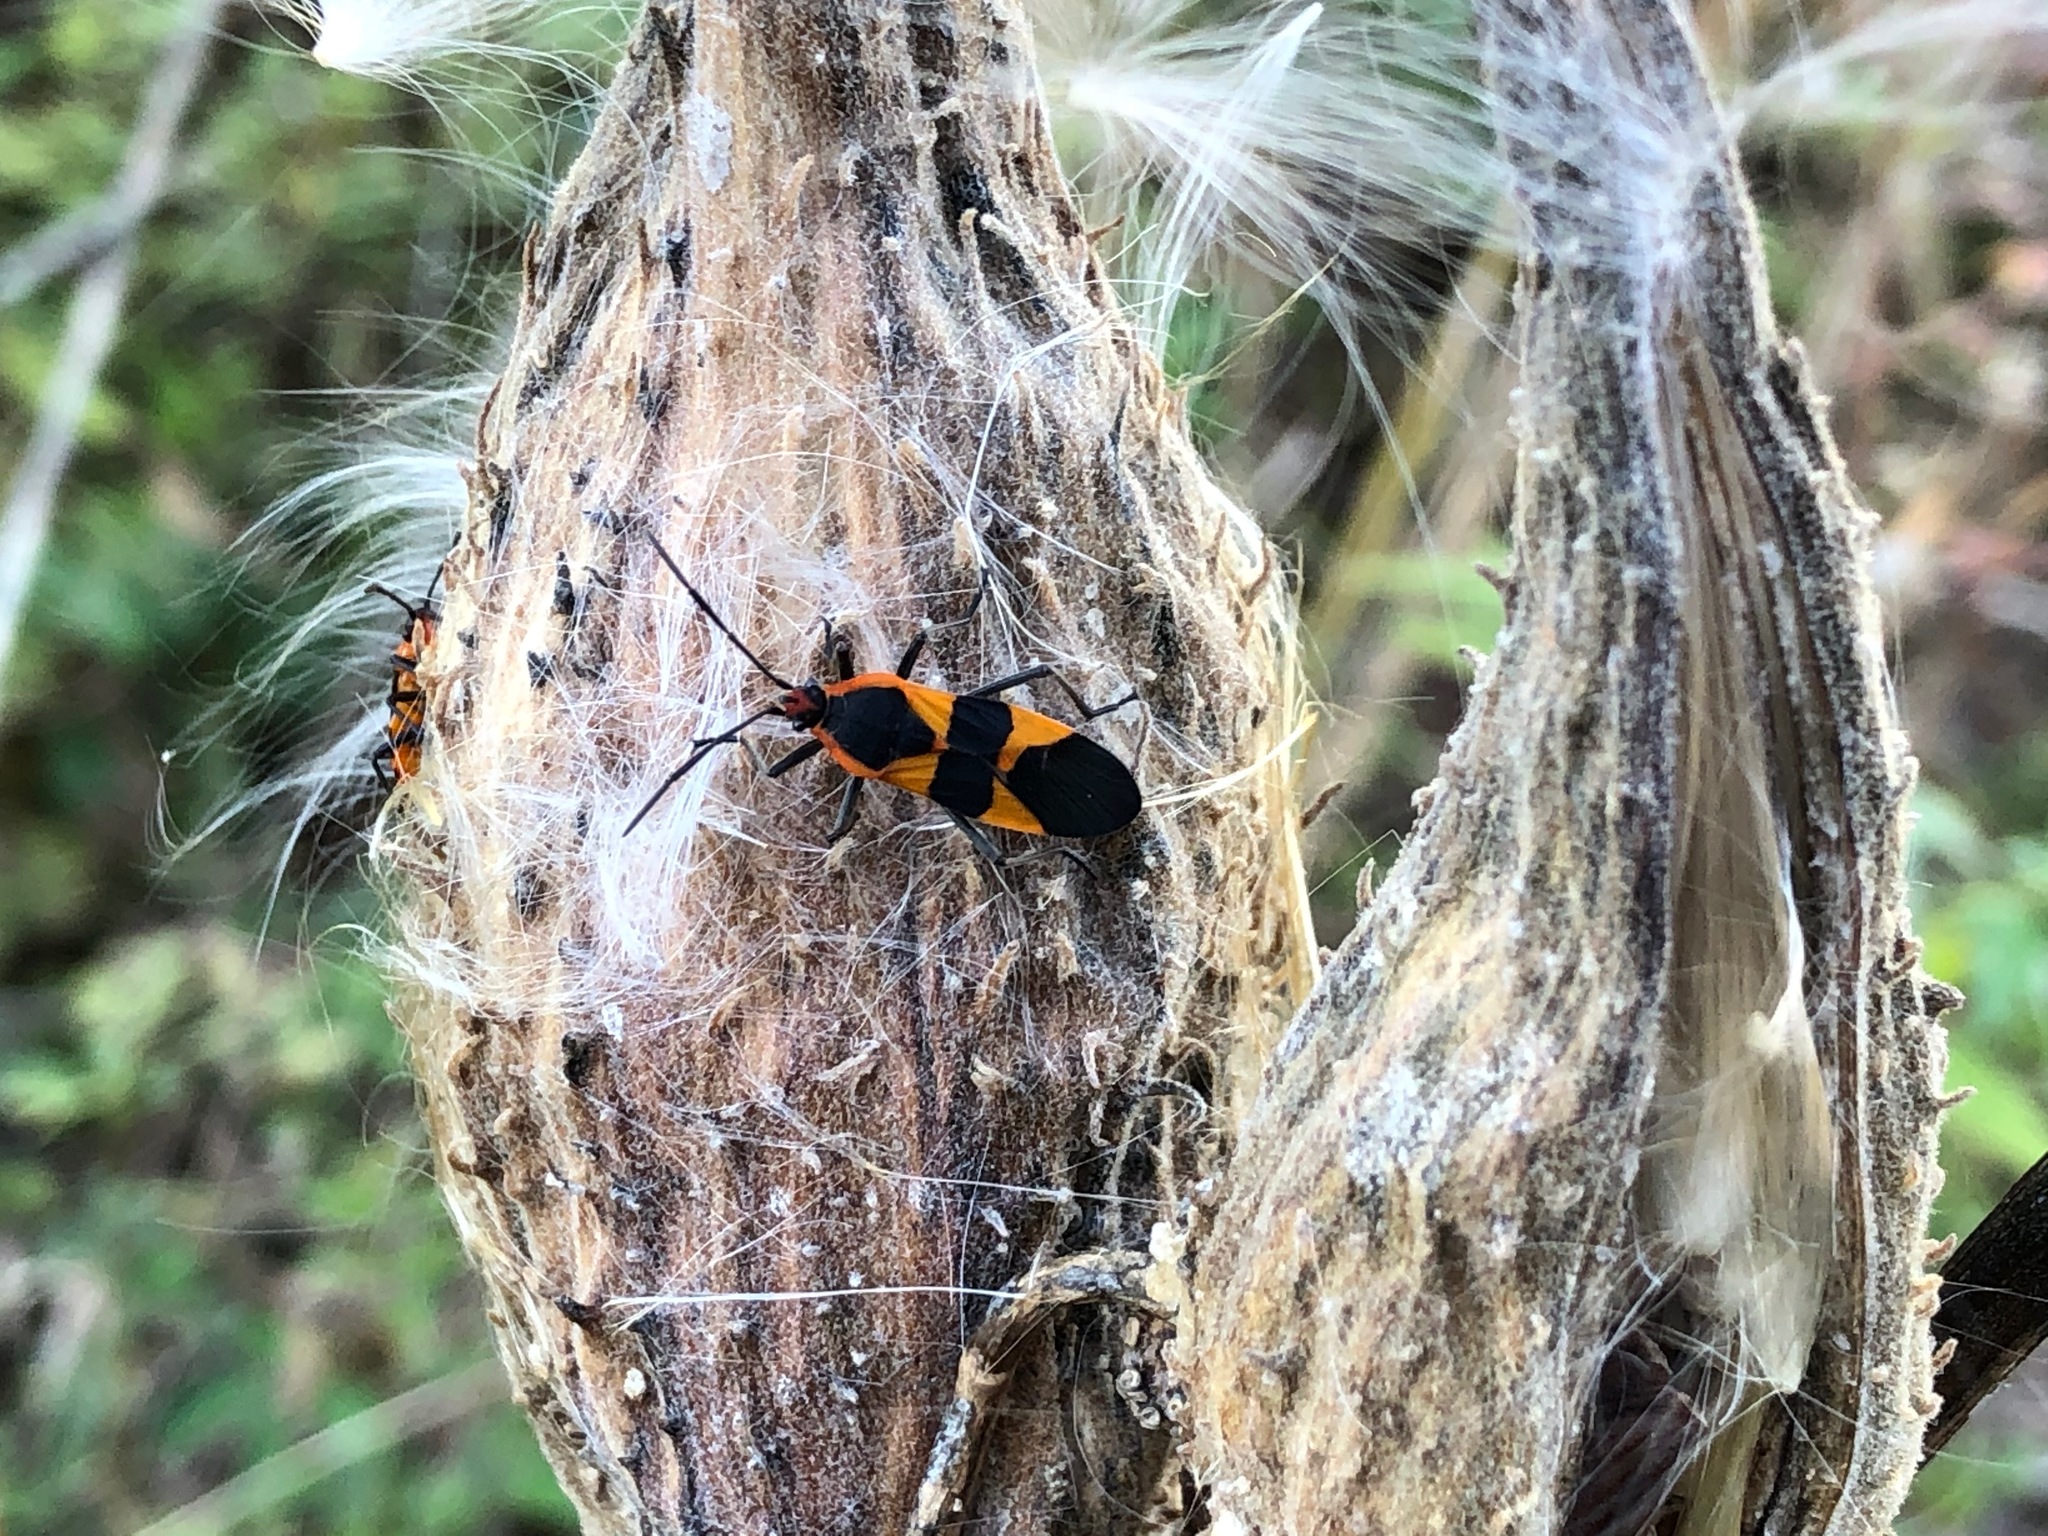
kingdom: Animalia
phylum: Arthropoda
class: Insecta
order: Hemiptera
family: Lygaeidae
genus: Oncopeltus
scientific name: Oncopeltus fasciatus
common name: Large milkweed bug
